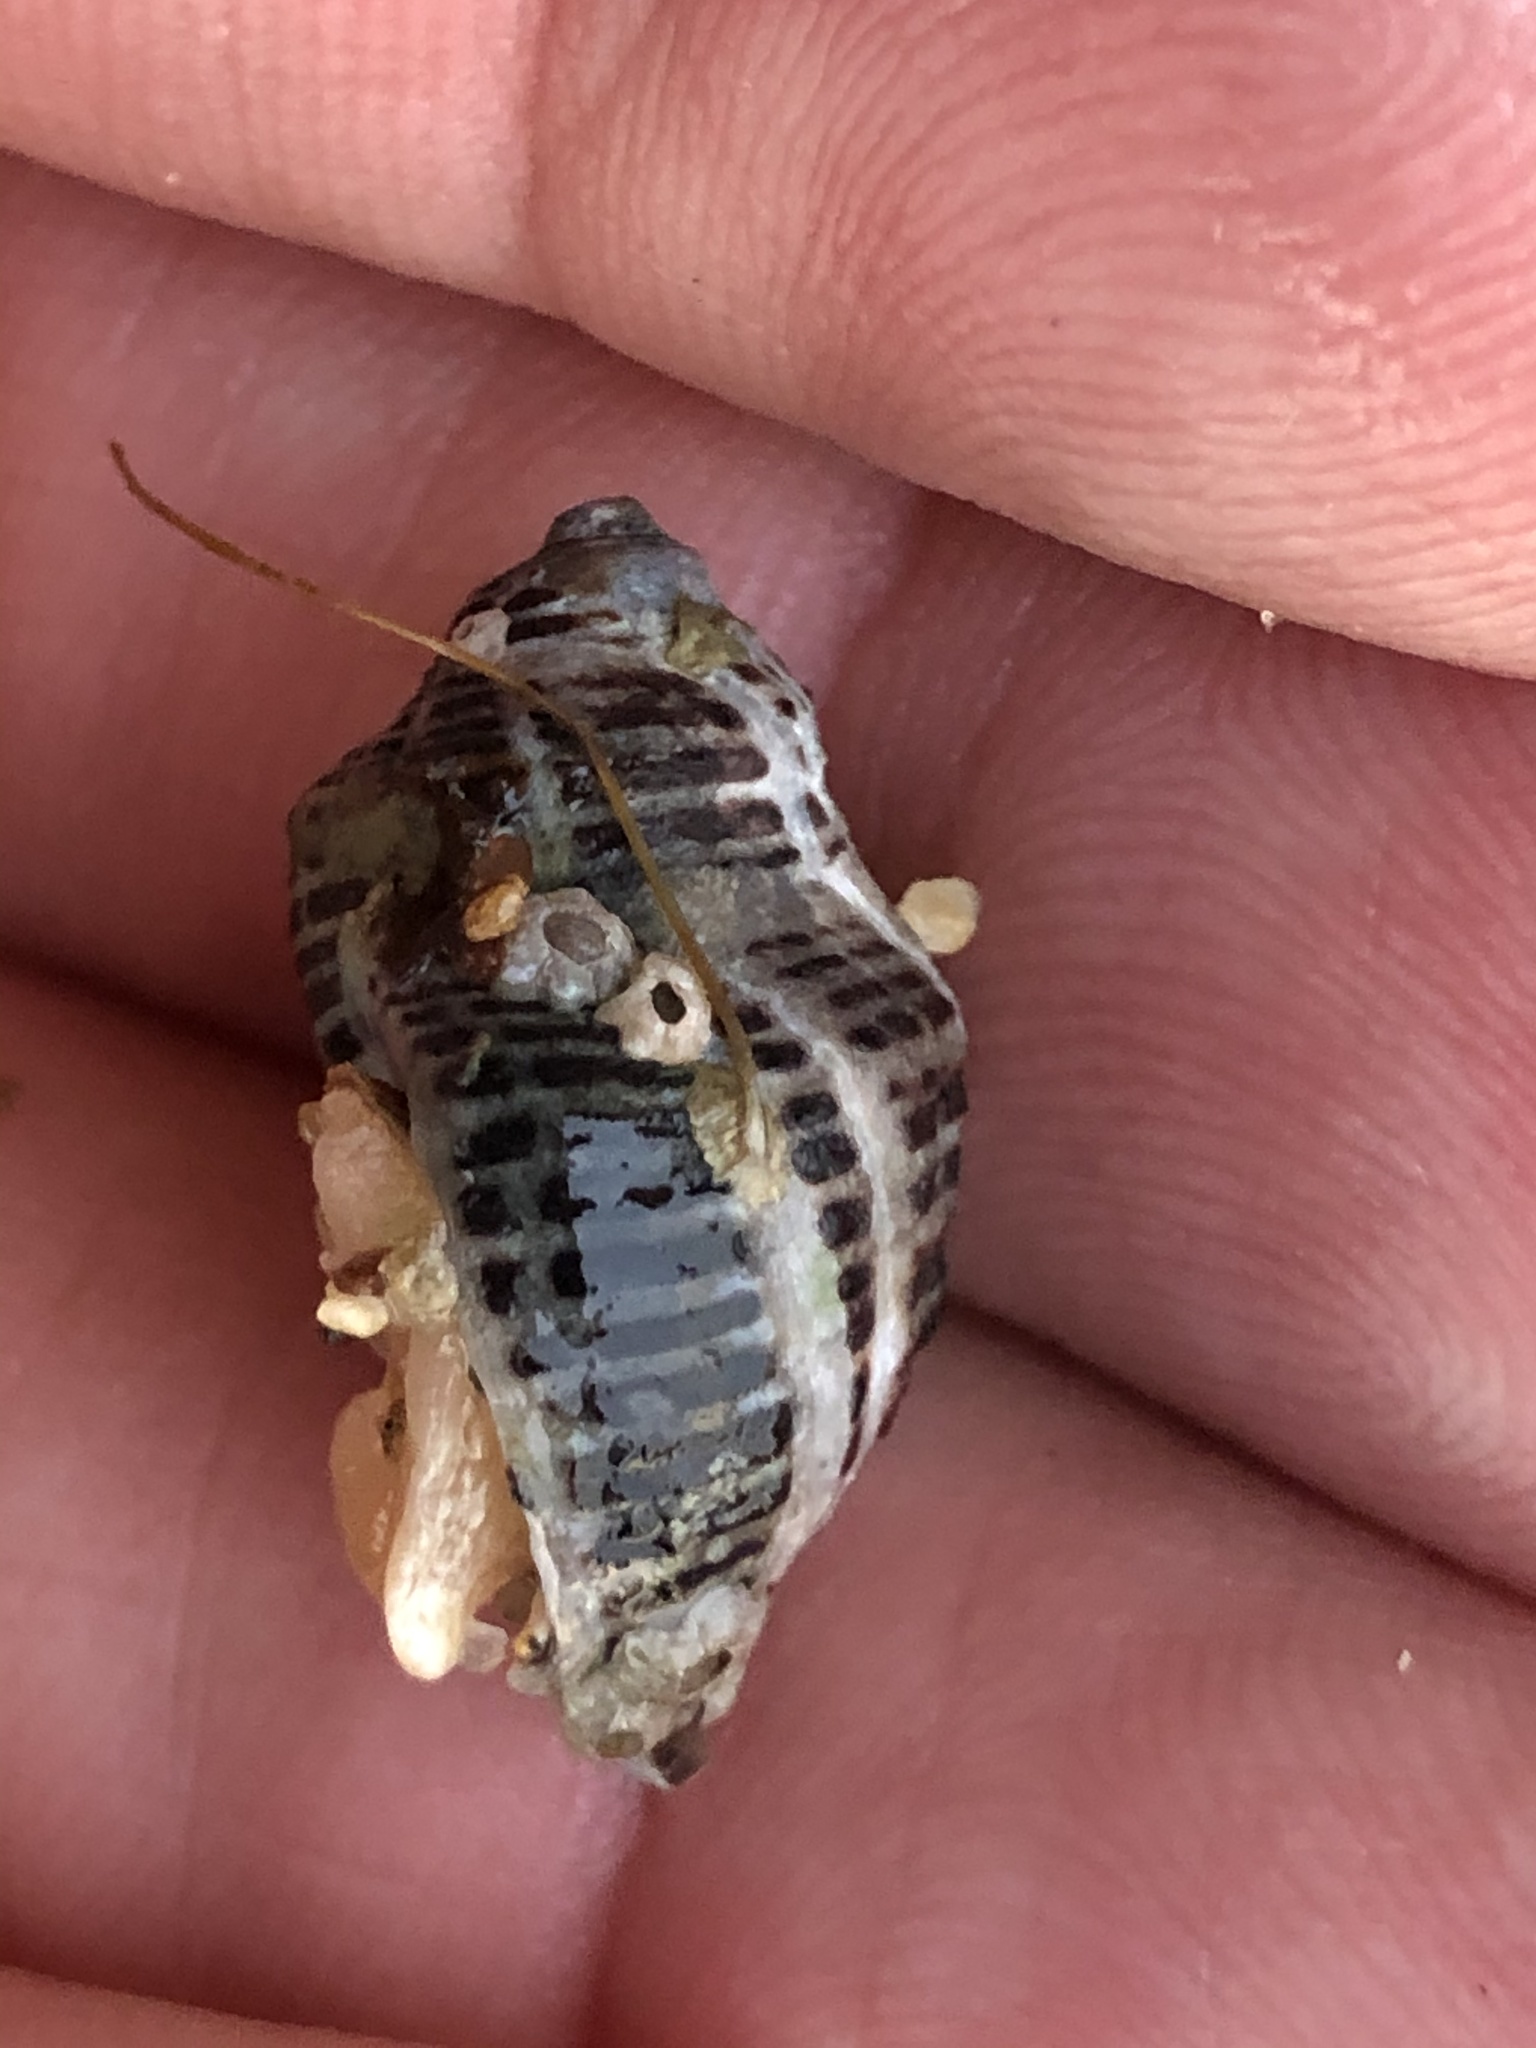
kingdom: Animalia
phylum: Mollusca
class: Gastropoda
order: Neogastropoda
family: Muricidae
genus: Acanthinucella
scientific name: Acanthinucella punctulata
